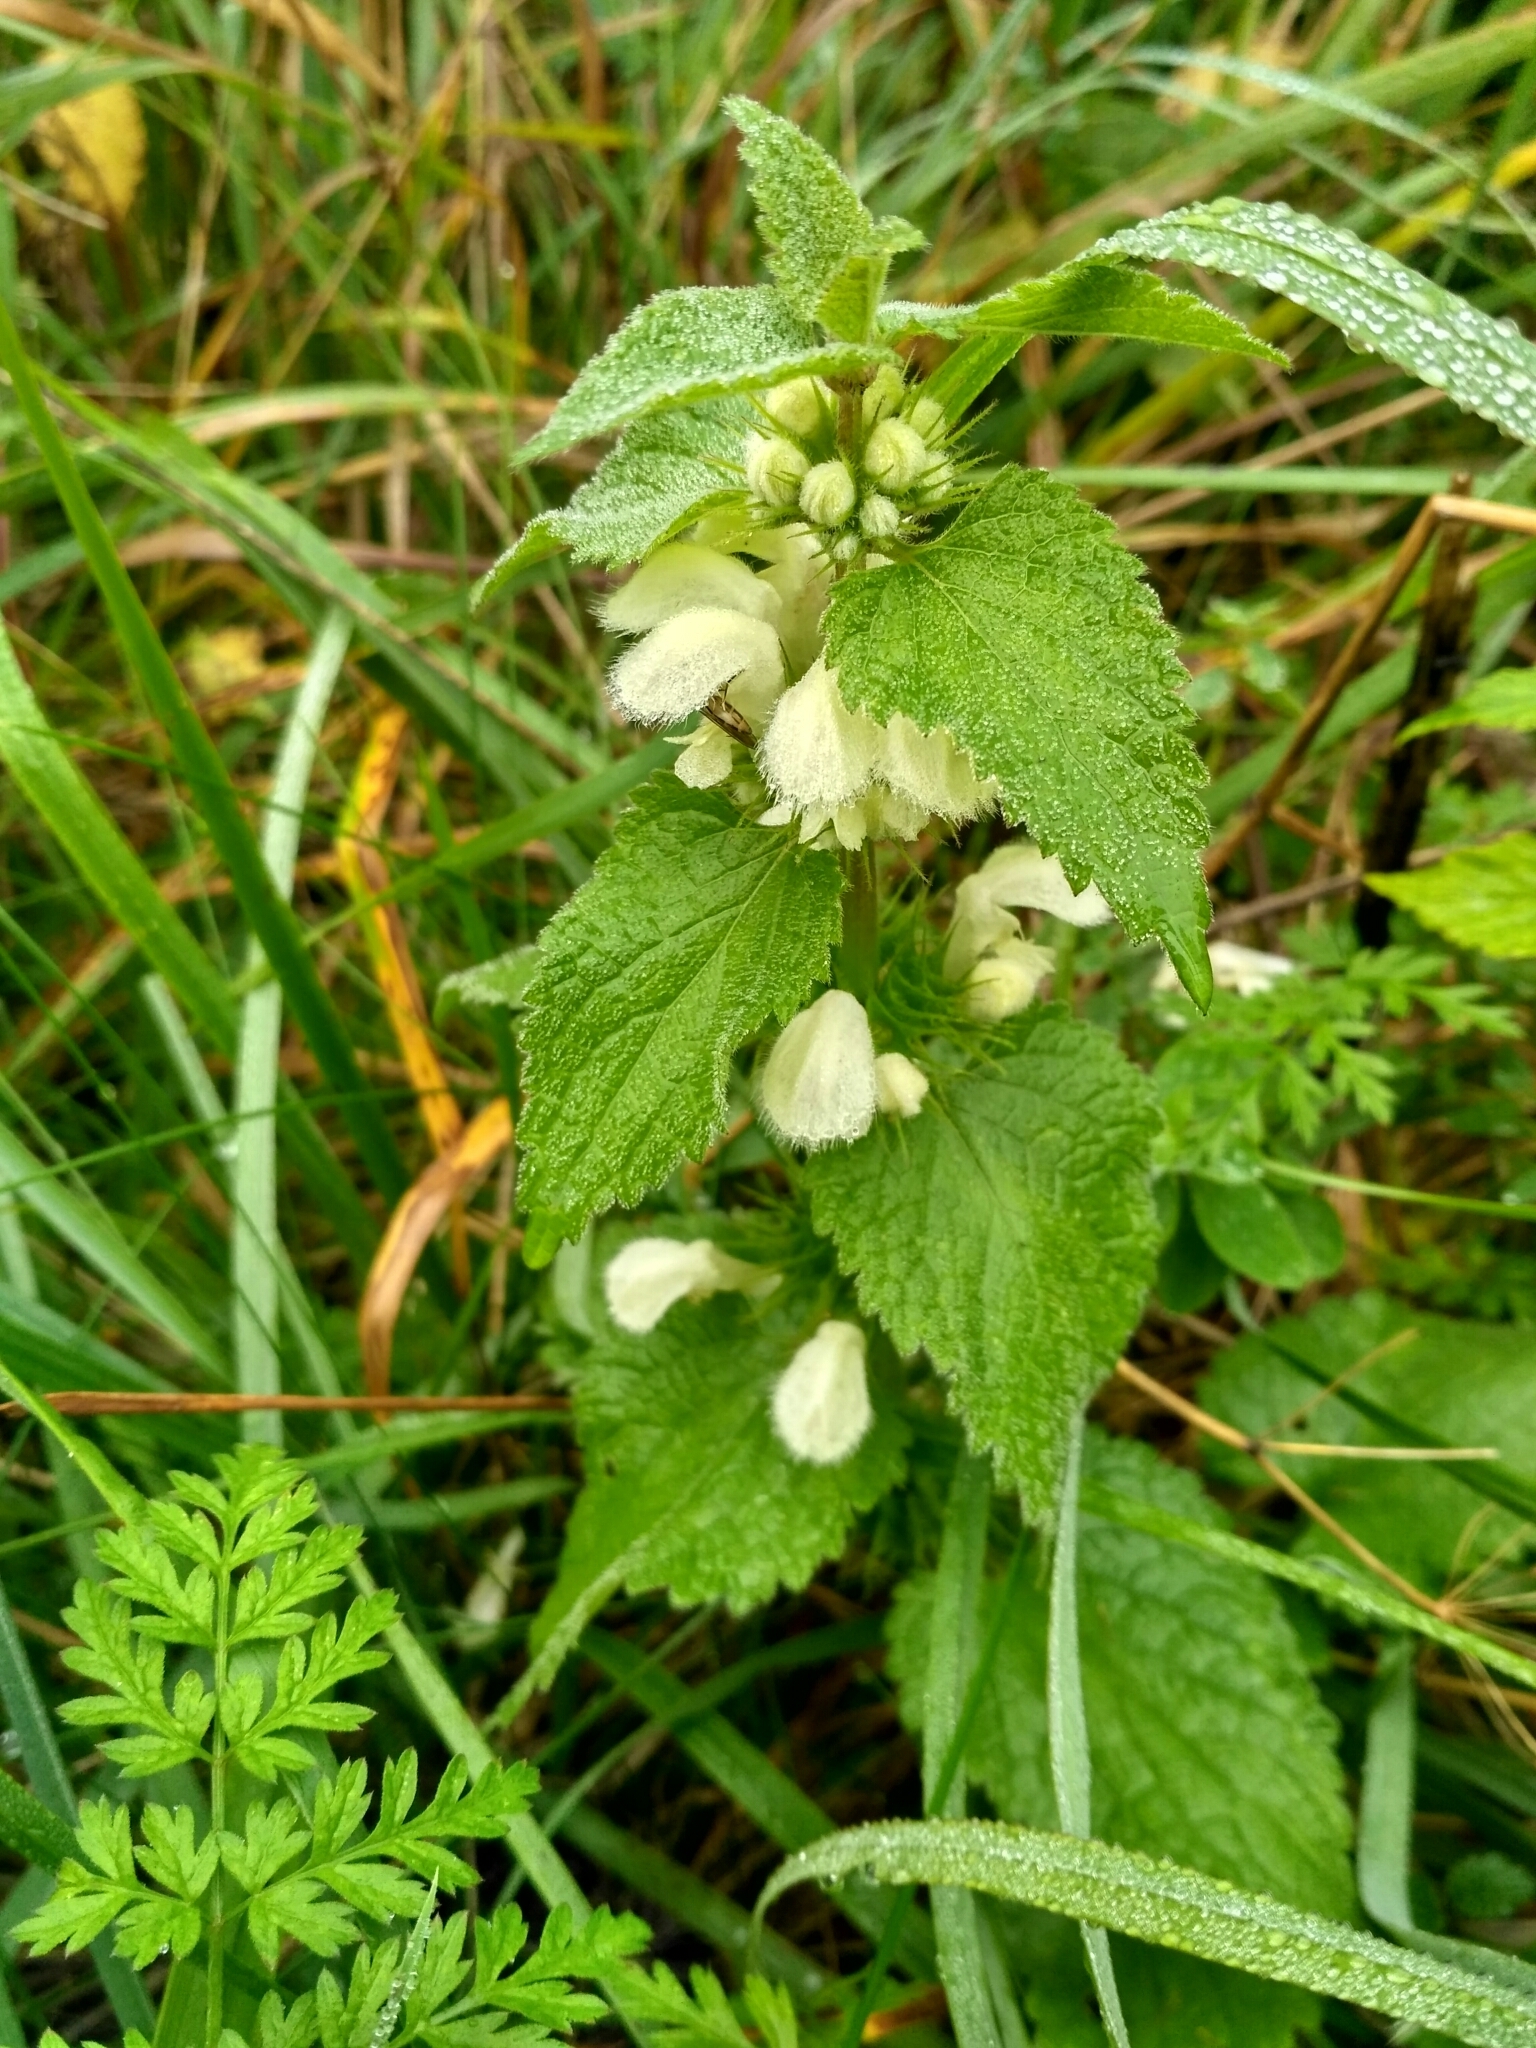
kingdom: Plantae
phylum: Tracheophyta
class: Magnoliopsida
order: Lamiales
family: Lamiaceae
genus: Lamium
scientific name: Lamium album
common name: White dead-nettle
